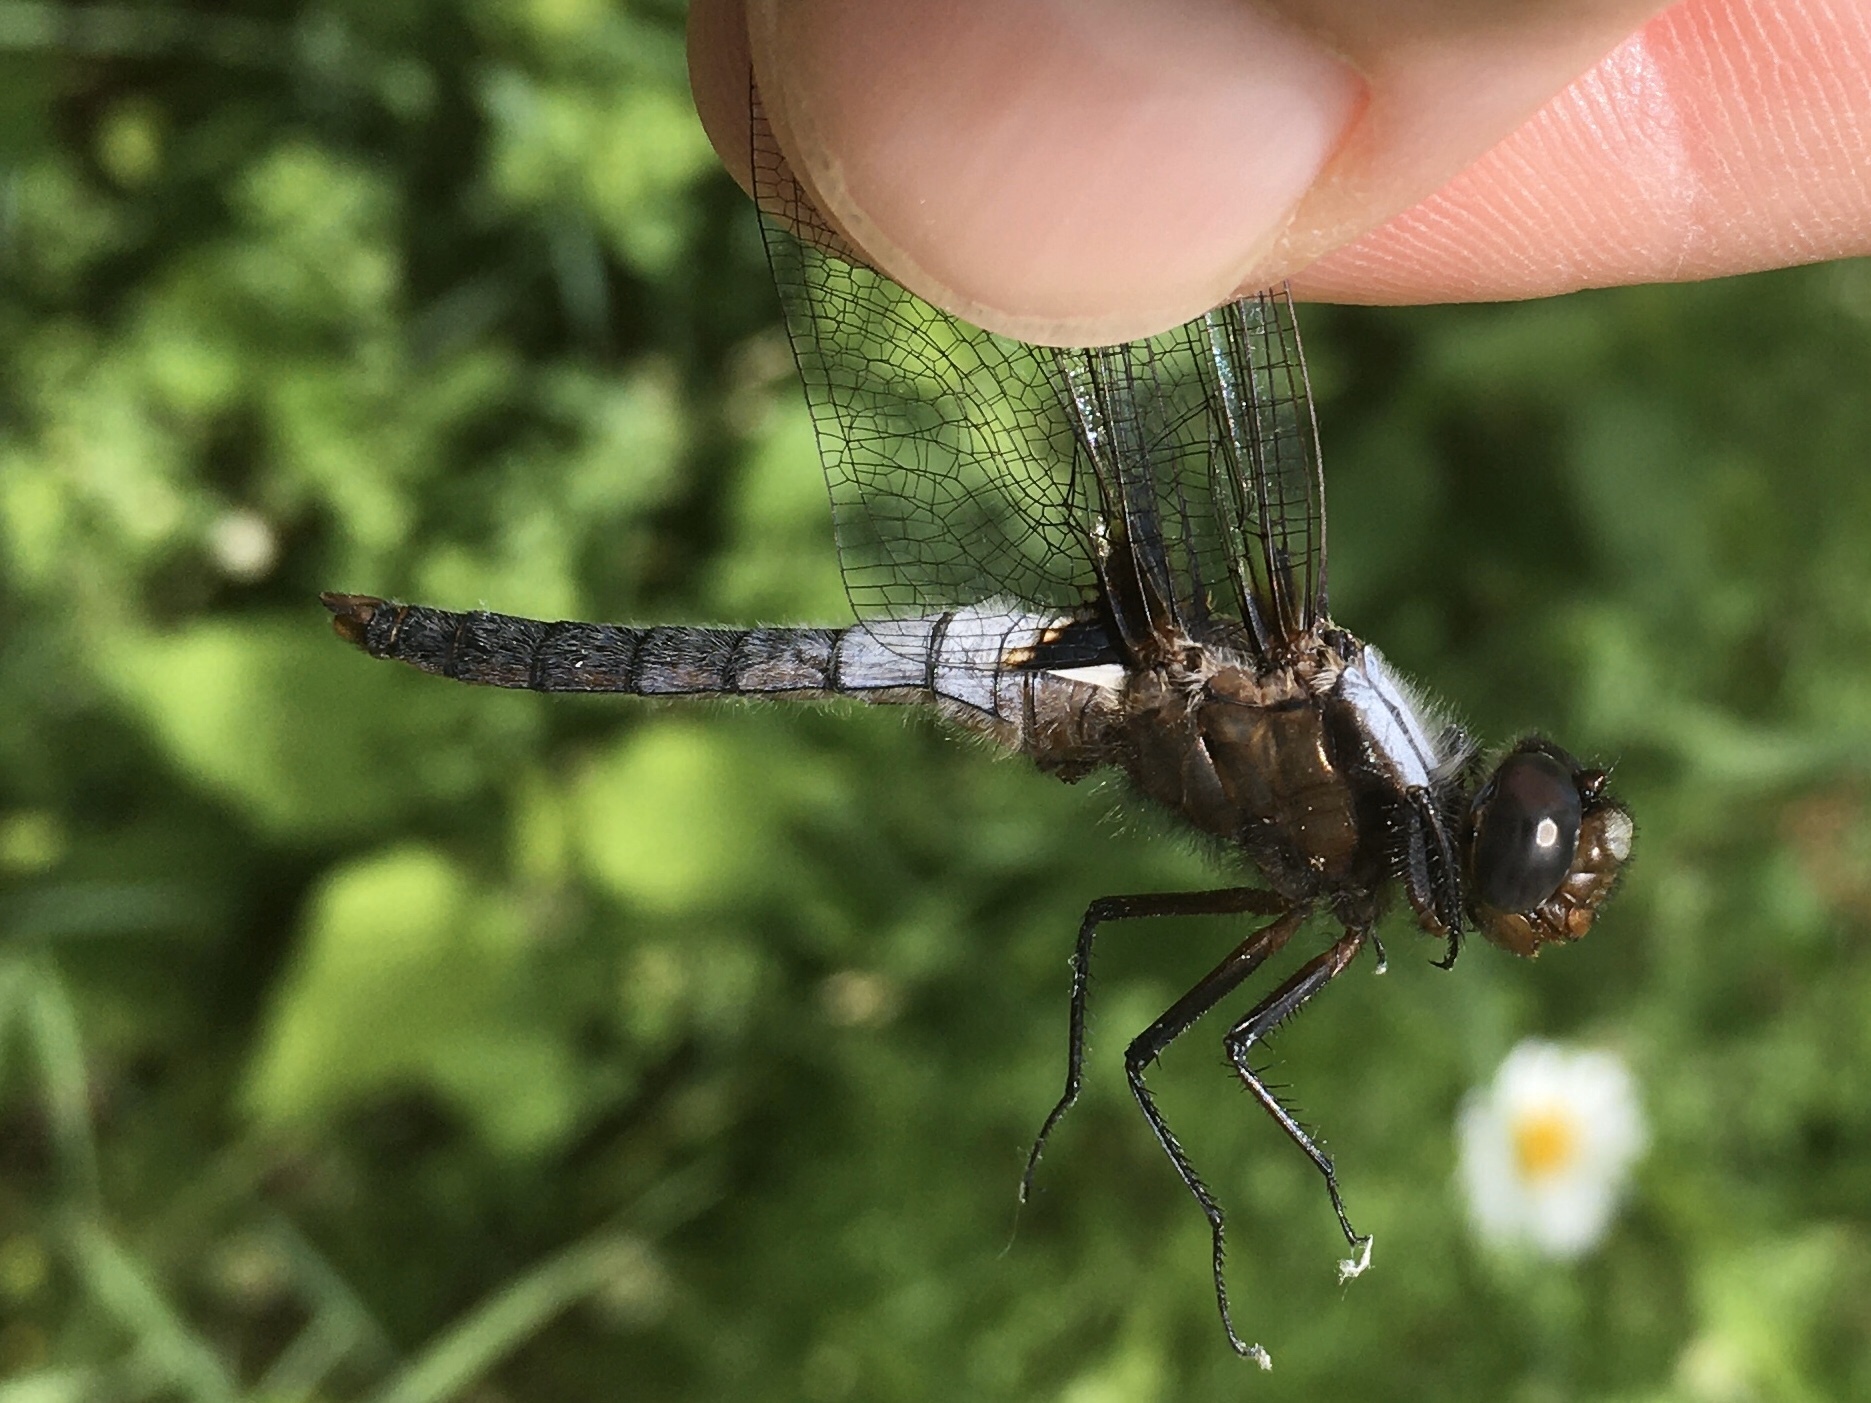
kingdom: Animalia
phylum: Arthropoda
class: Insecta
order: Odonata
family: Libellulidae
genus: Ladona
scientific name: Ladona julia
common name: Chalk-fronted corporal
